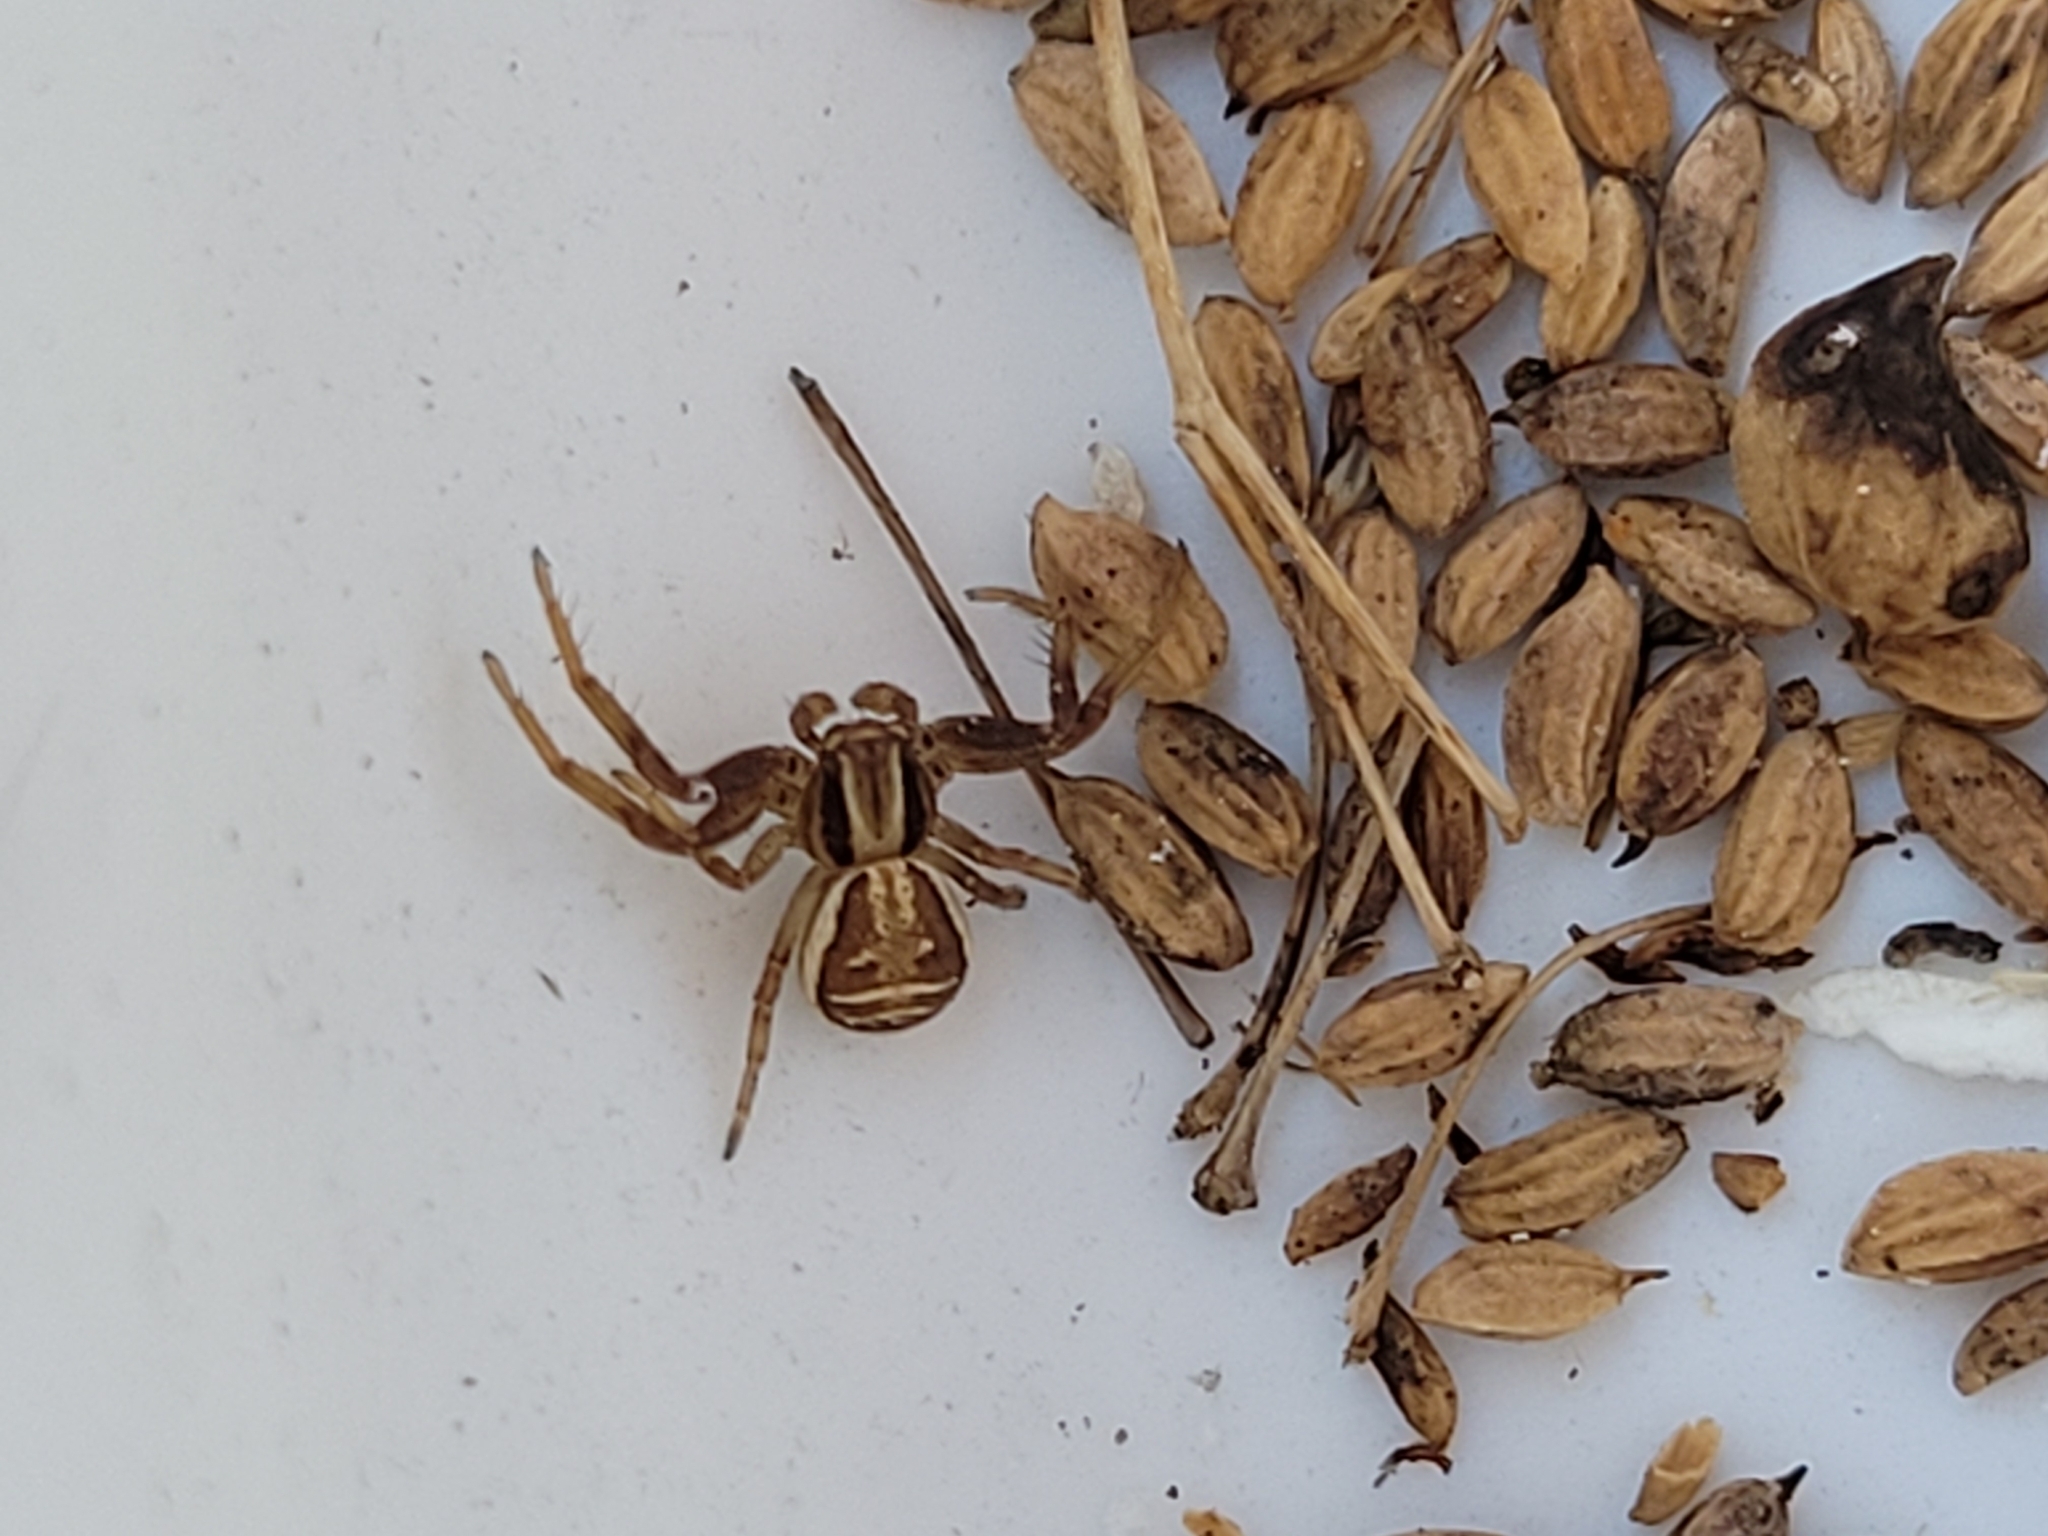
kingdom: Animalia
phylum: Arthropoda
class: Arachnida
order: Araneae
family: Thomisidae
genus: Xysticus
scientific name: Xysticus ulmi
